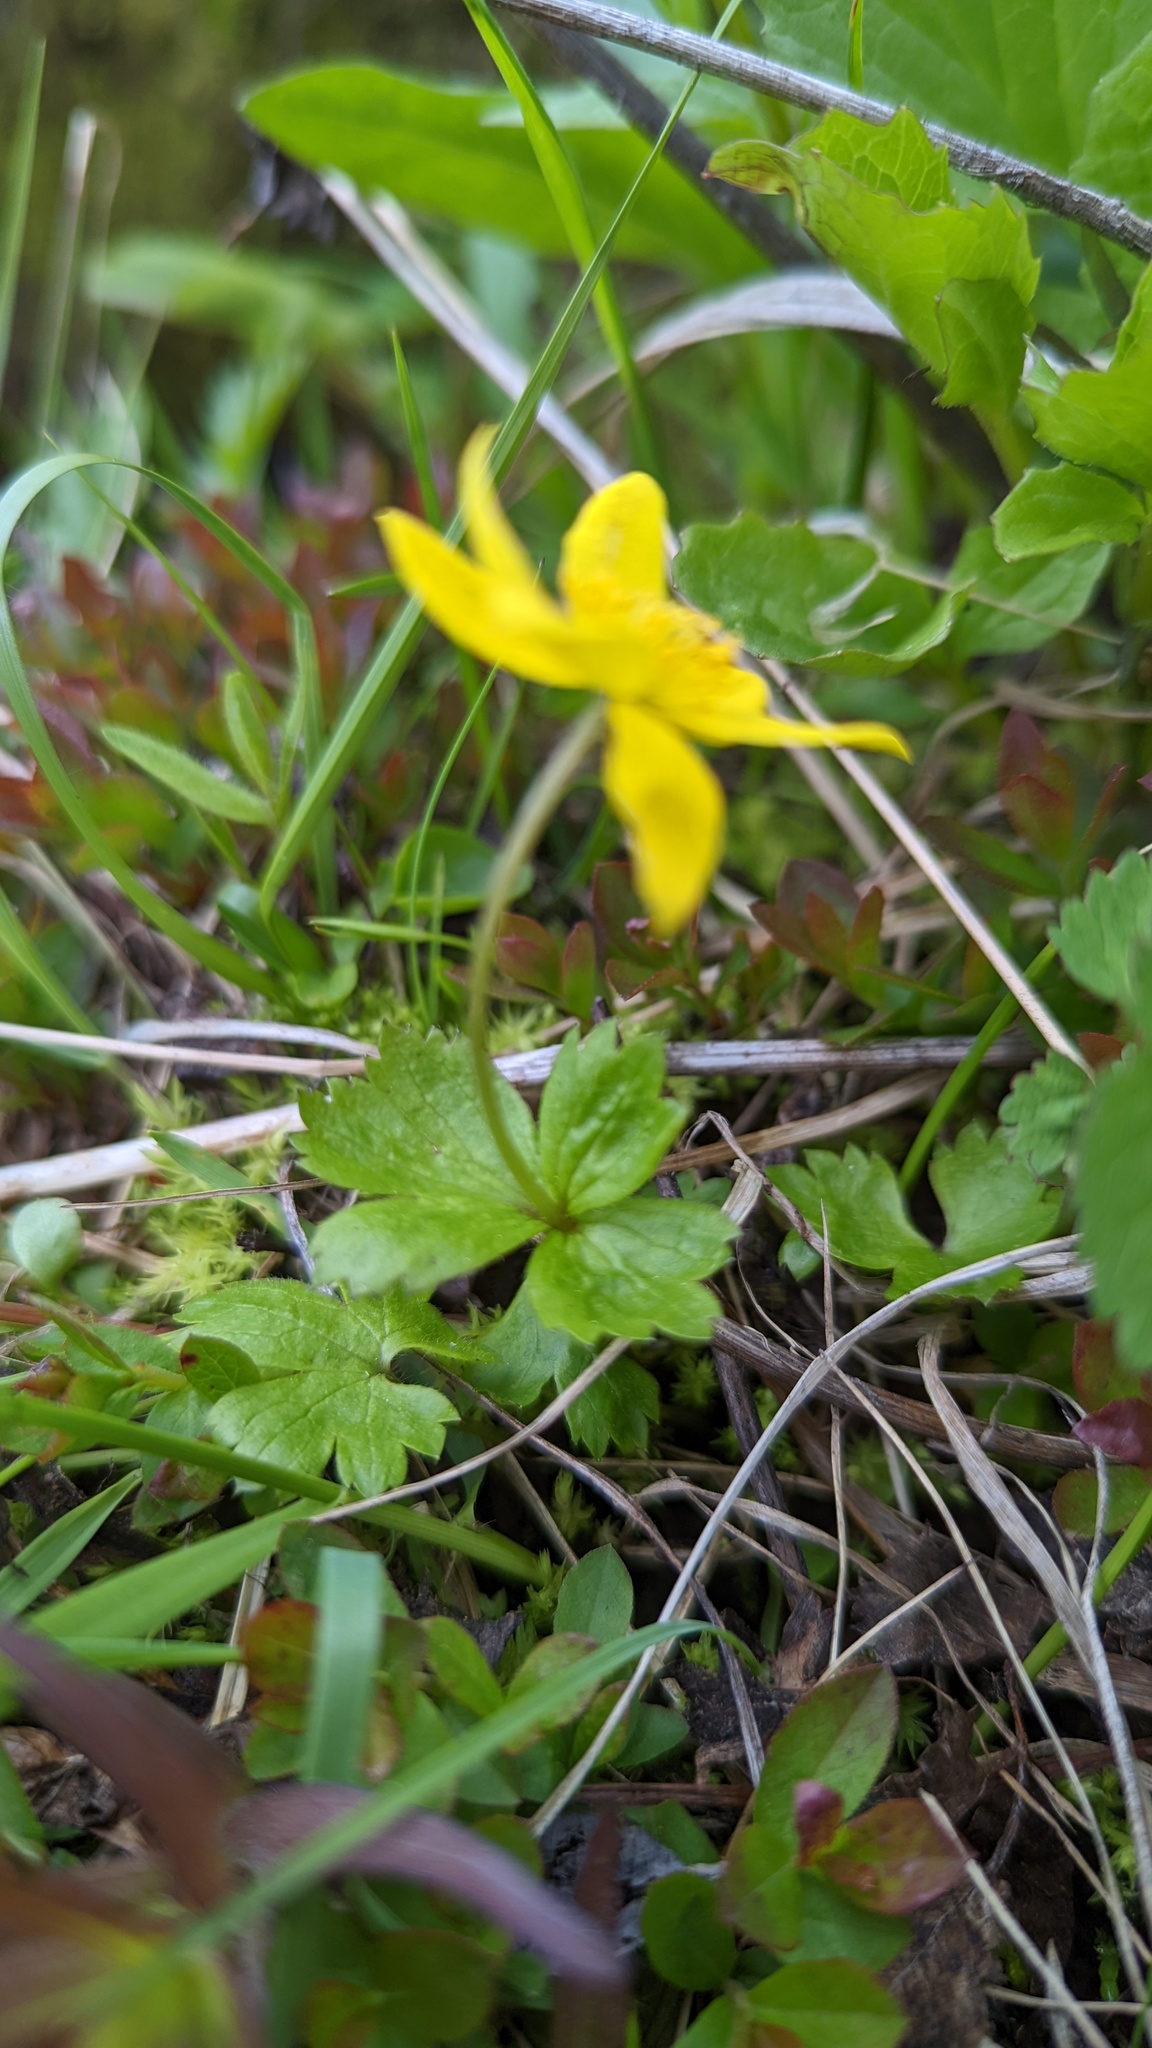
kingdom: Plantae
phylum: Tracheophyta
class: Magnoliopsida
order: Ranunculales
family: Ranunculaceae
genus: Anemonastrum
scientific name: Anemonastrum richardsonii
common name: Richardson's anemone
